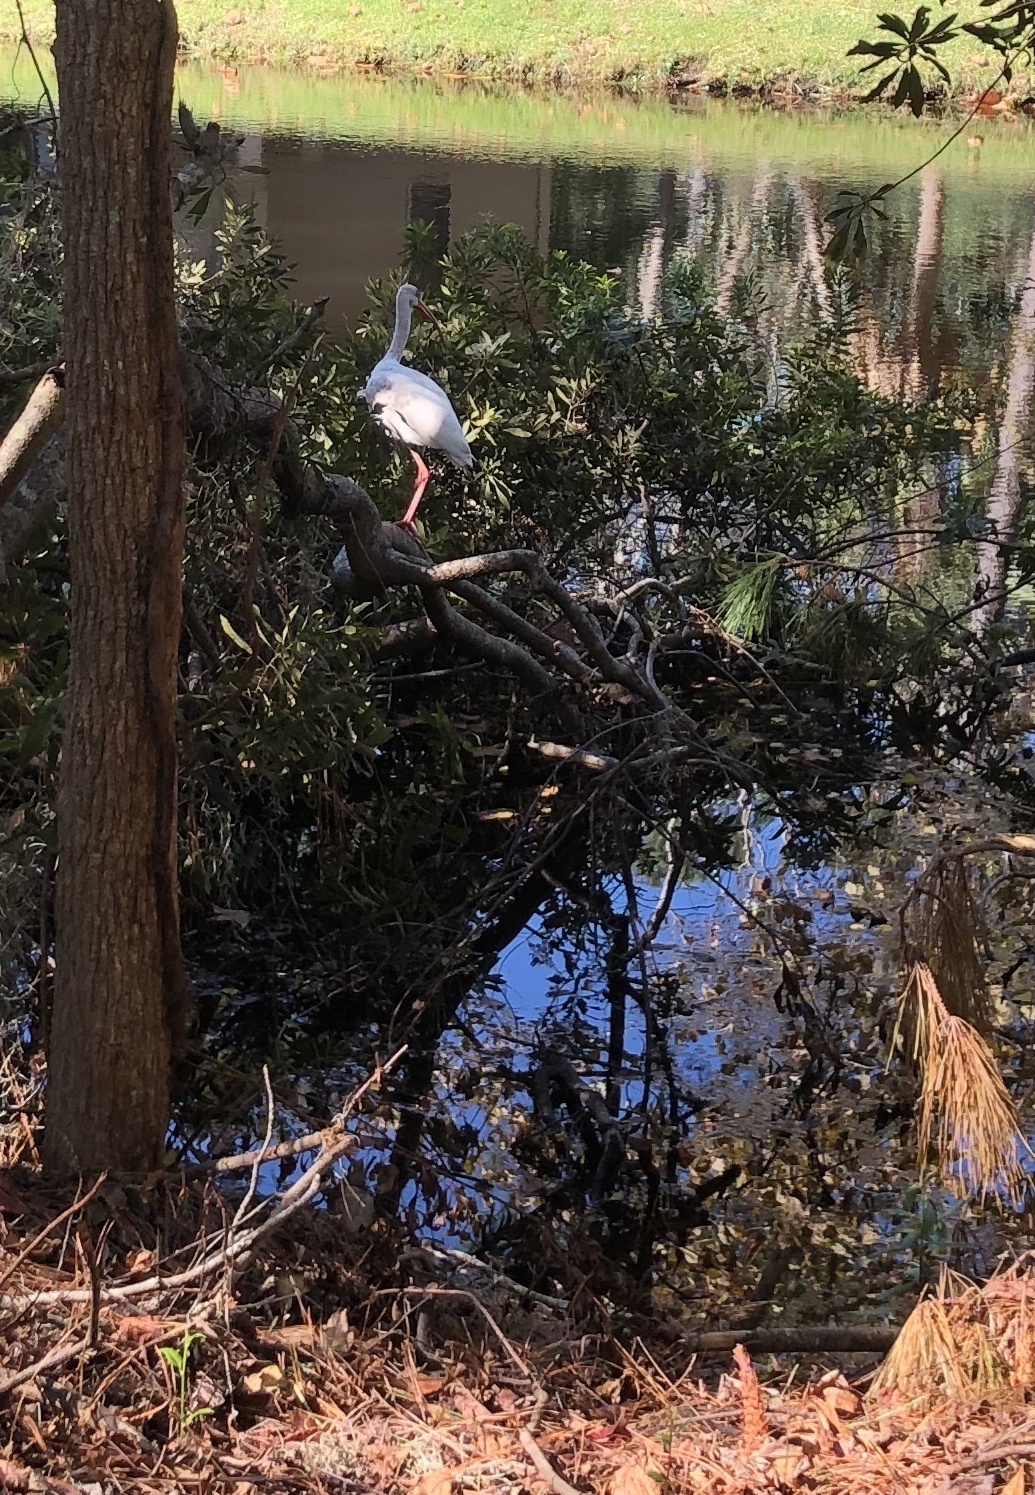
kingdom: Animalia
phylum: Chordata
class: Aves
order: Pelecaniformes
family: Threskiornithidae
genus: Eudocimus
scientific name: Eudocimus albus
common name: White ibis
